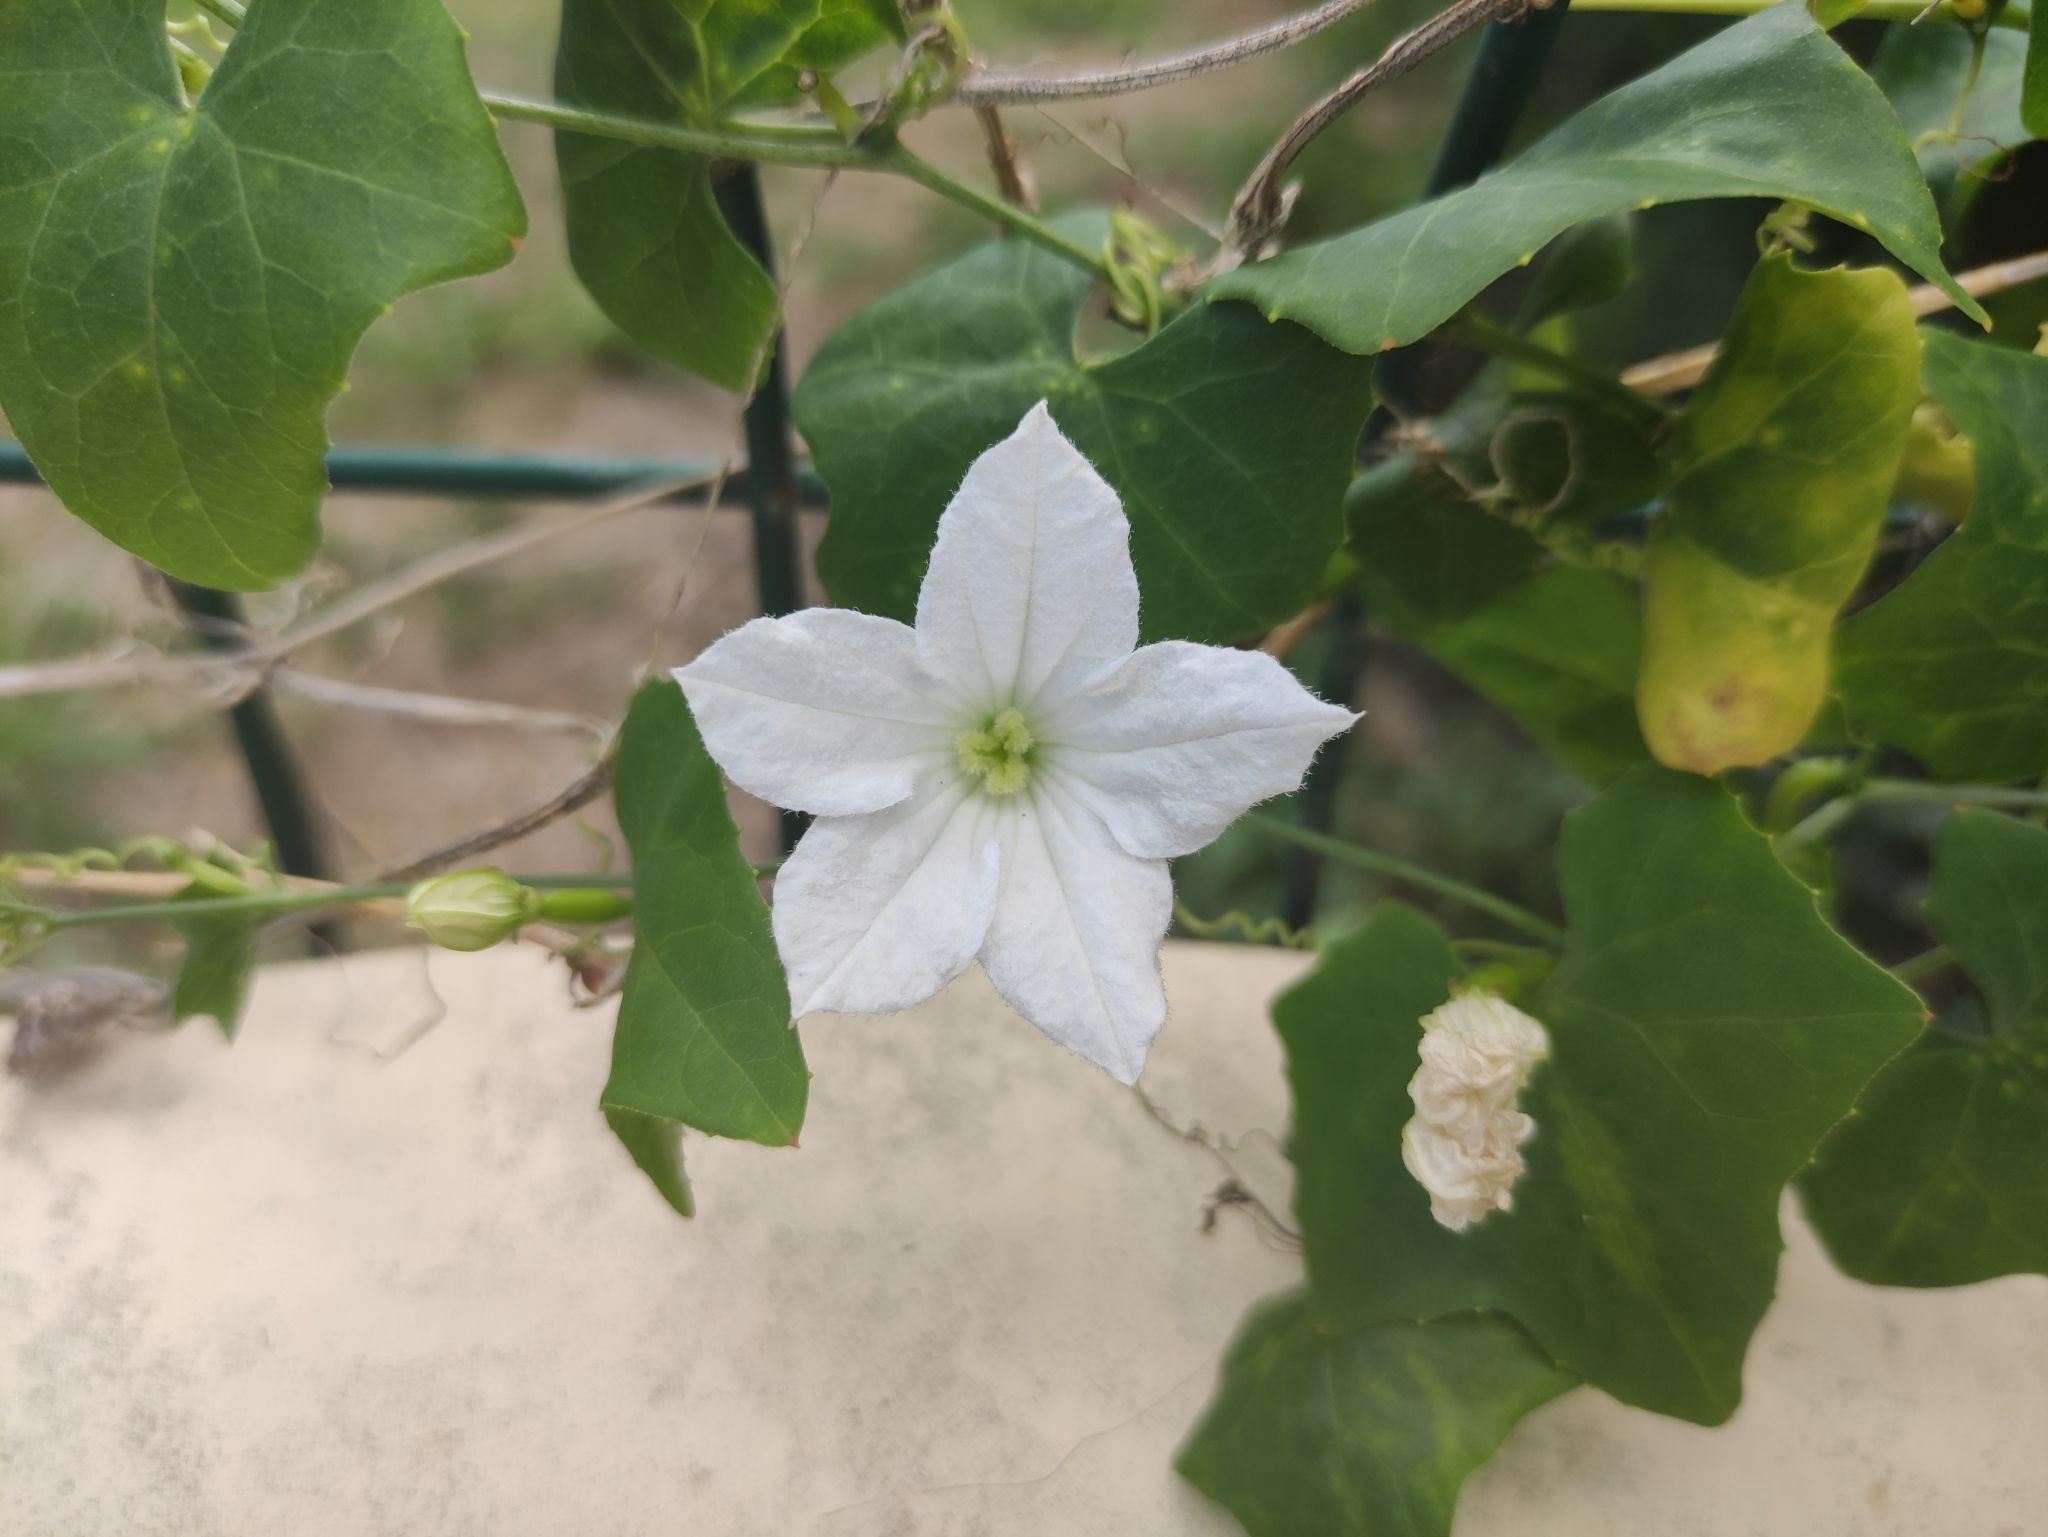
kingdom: Plantae
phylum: Tracheophyta
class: Magnoliopsida
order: Cucurbitales
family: Cucurbitaceae
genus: Coccinia
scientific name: Coccinia grandis
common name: Ivy gourd
